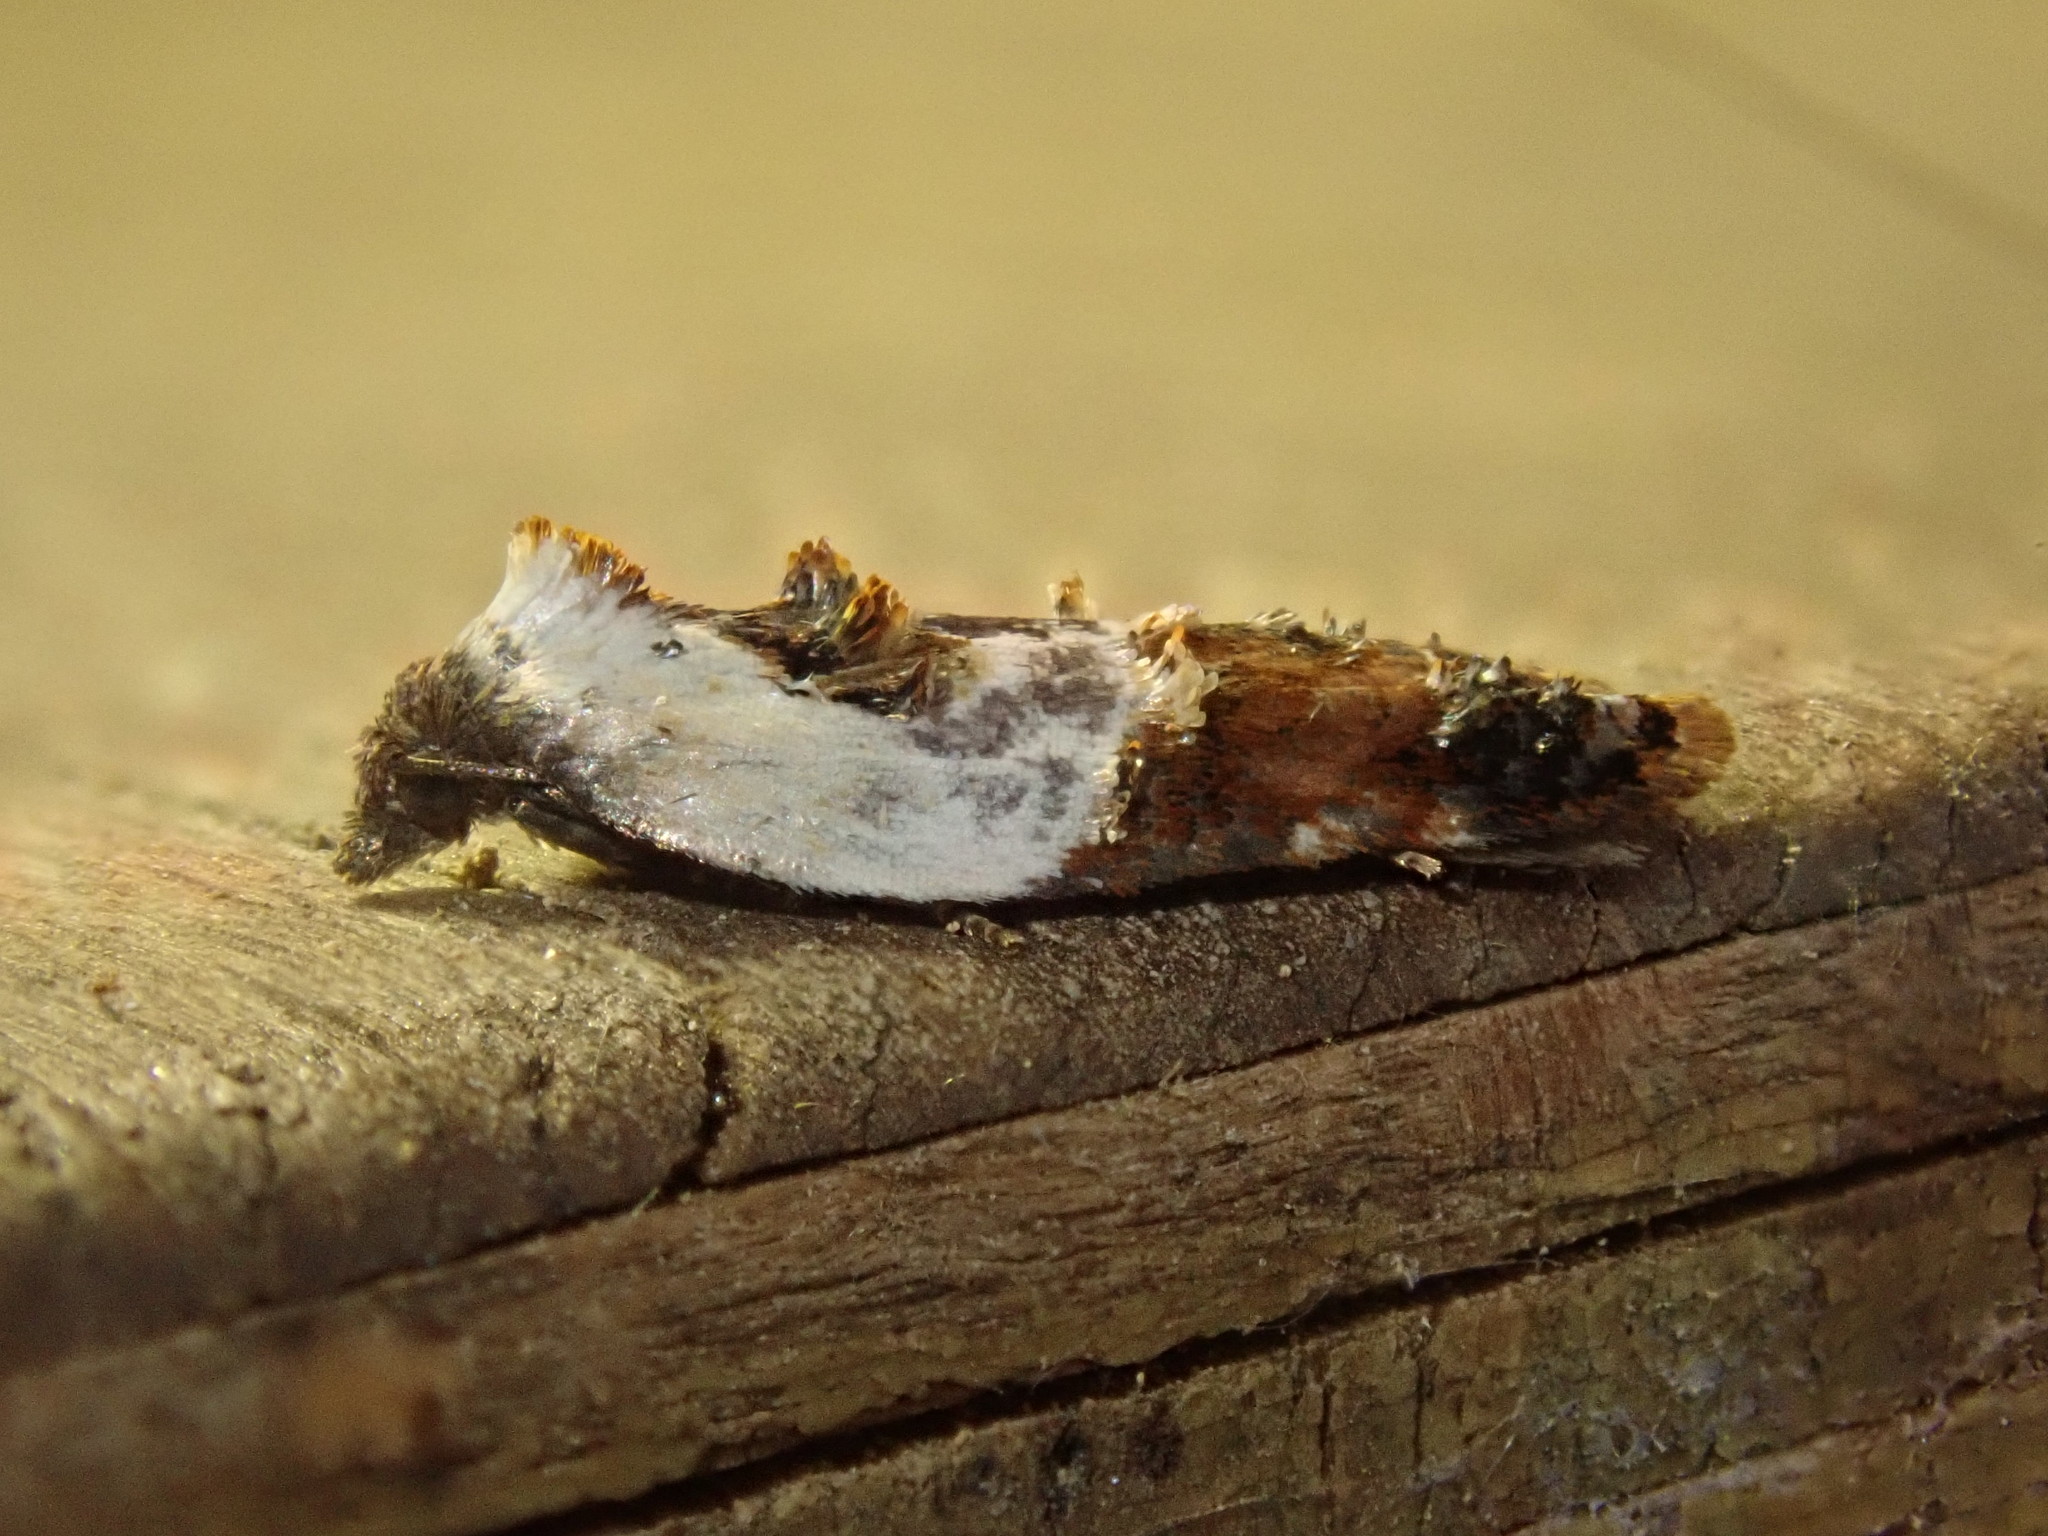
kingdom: Animalia
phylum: Arthropoda
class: Insecta
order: Lepidoptera
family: Tortricidae
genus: Acleris
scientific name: Acleris variegana
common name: Garden rose tortrix
